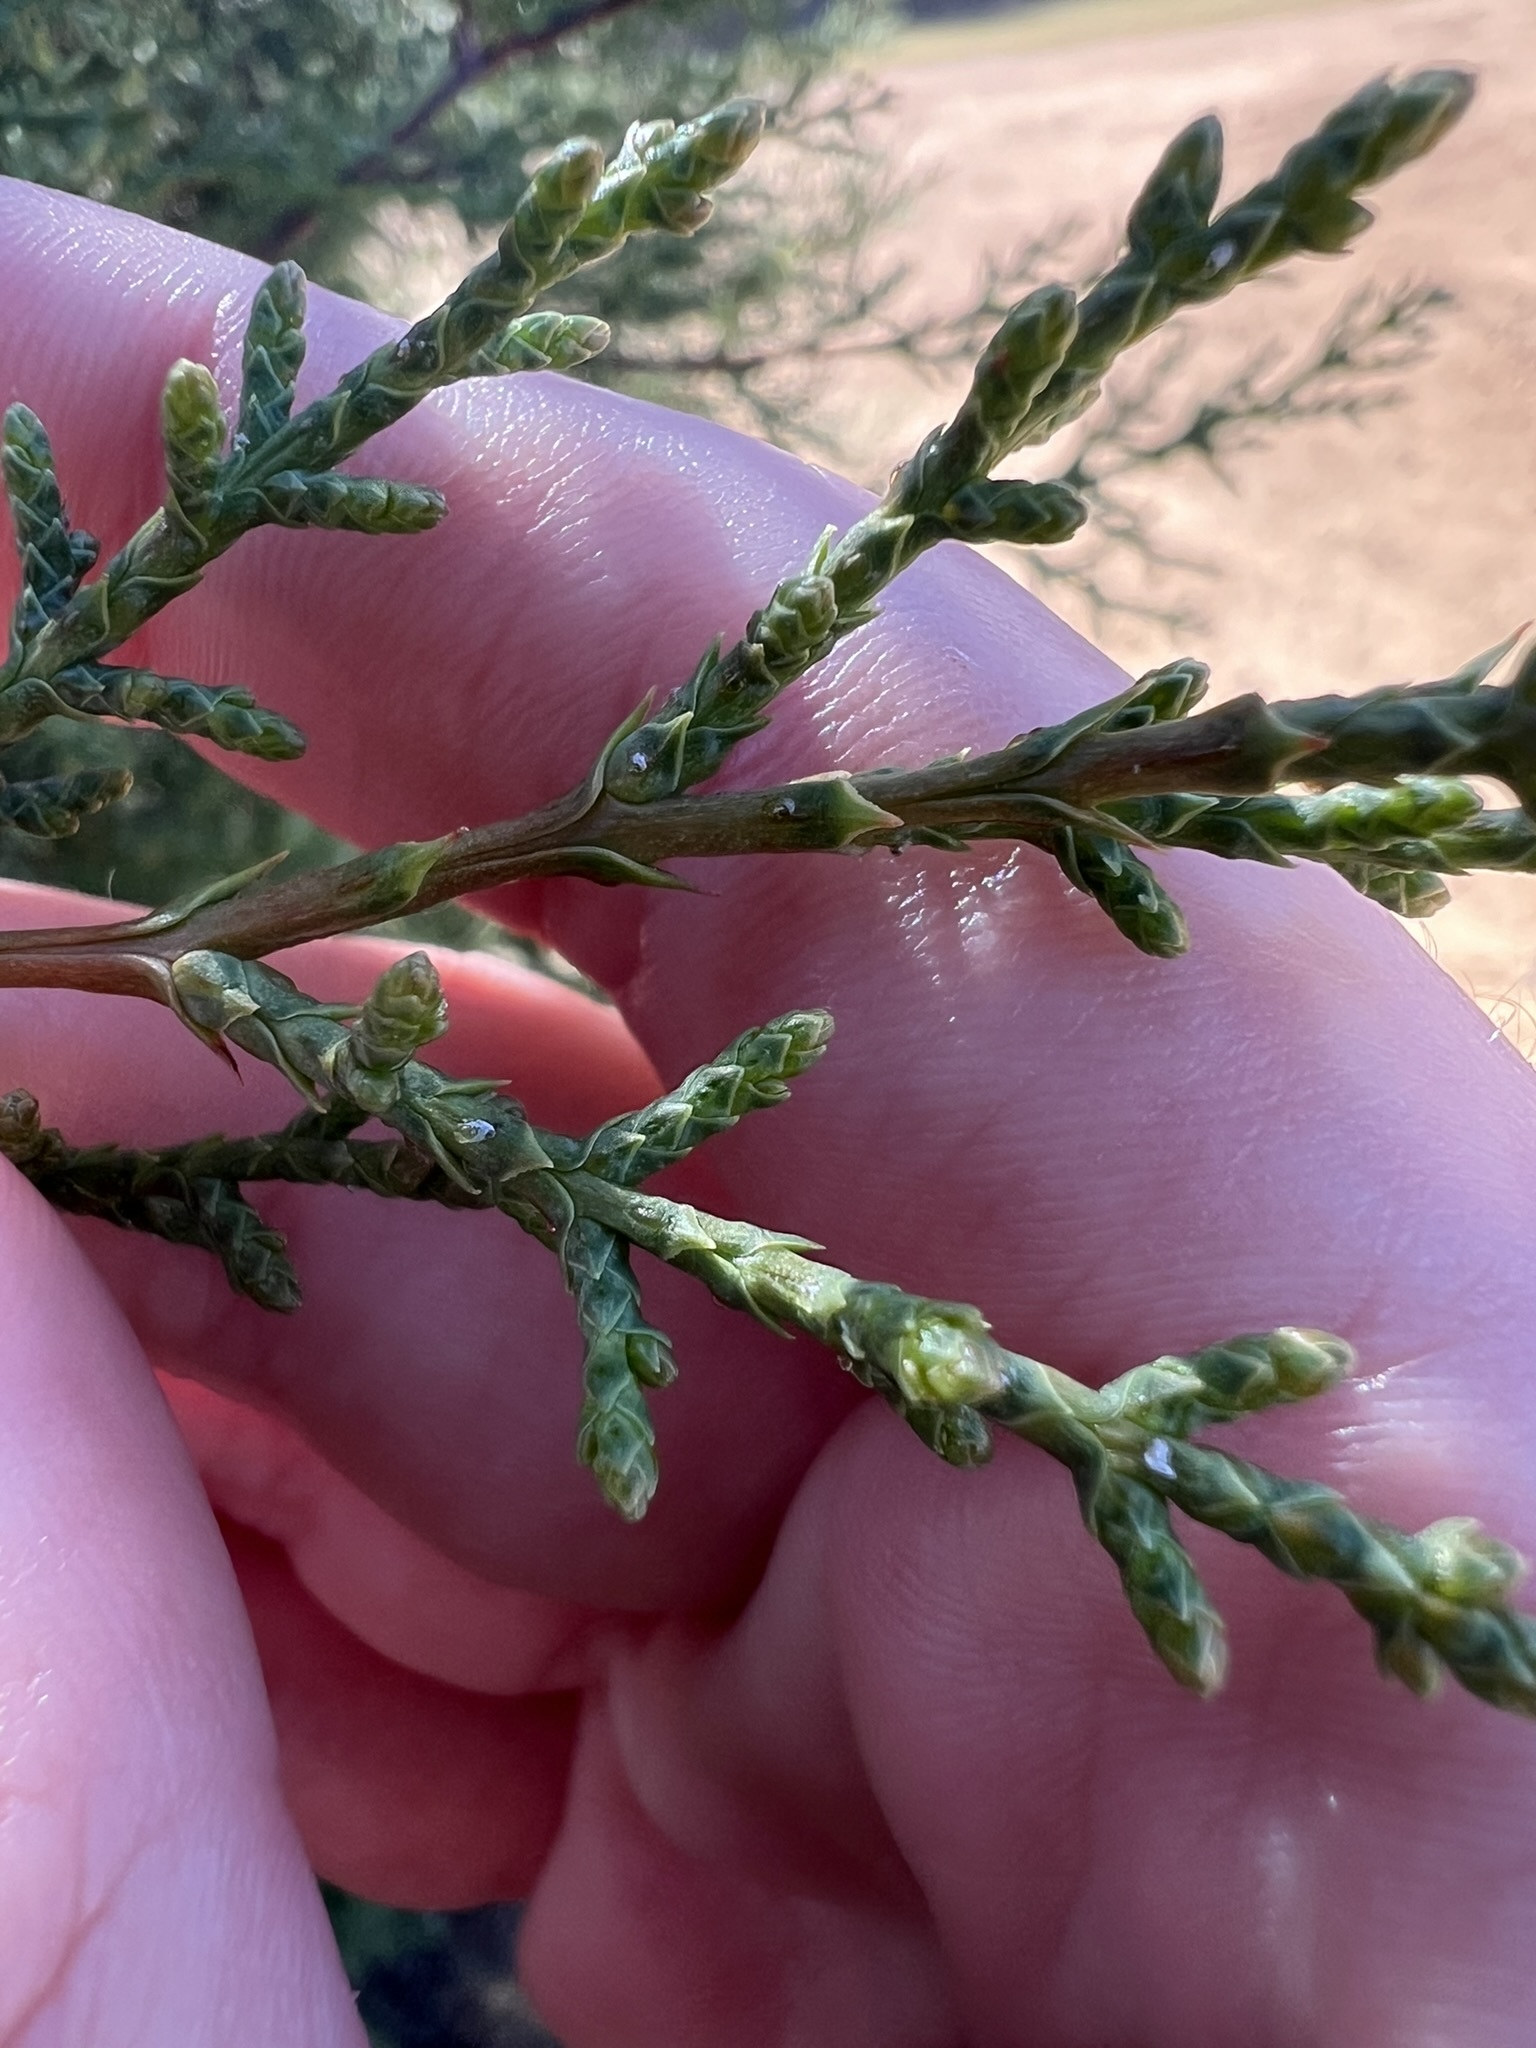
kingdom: Plantae
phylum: Tracheophyta
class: Pinopsida
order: Pinales
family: Cupressaceae
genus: Cupressus
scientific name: Cupressus guadalupensis
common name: Forbes cypress
